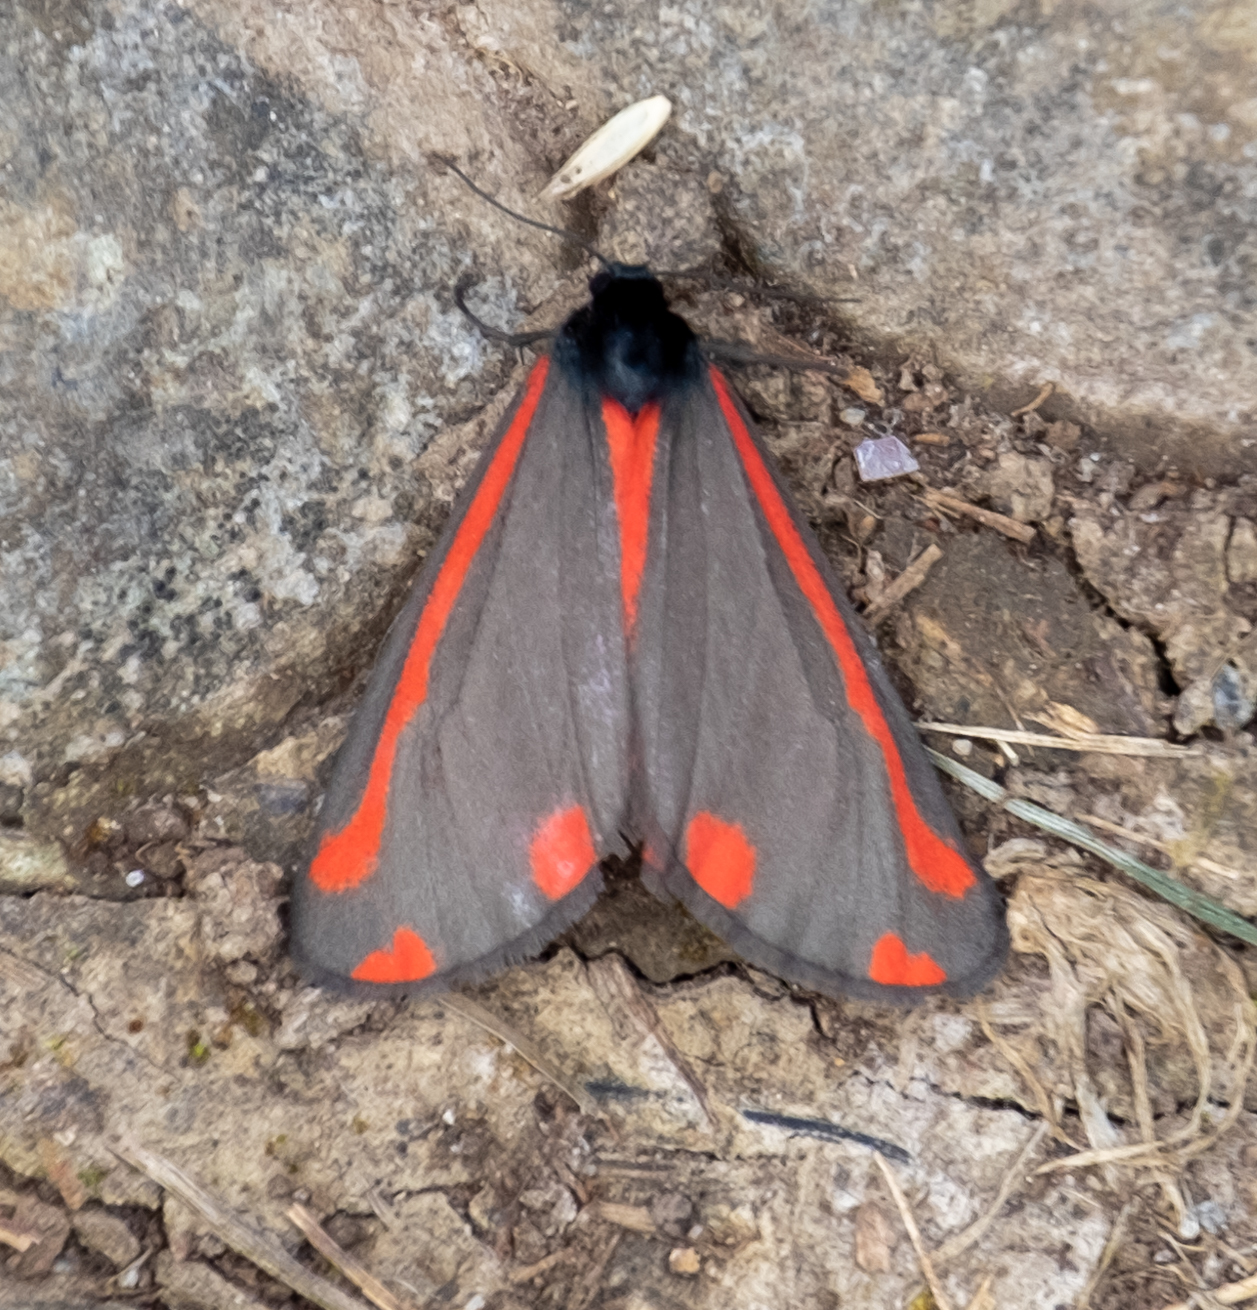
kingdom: Animalia
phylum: Arthropoda
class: Insecta
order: Lepidoptera
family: Erebidae
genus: Tyria
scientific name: Tyria jacobaeae
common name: Cinnabar
